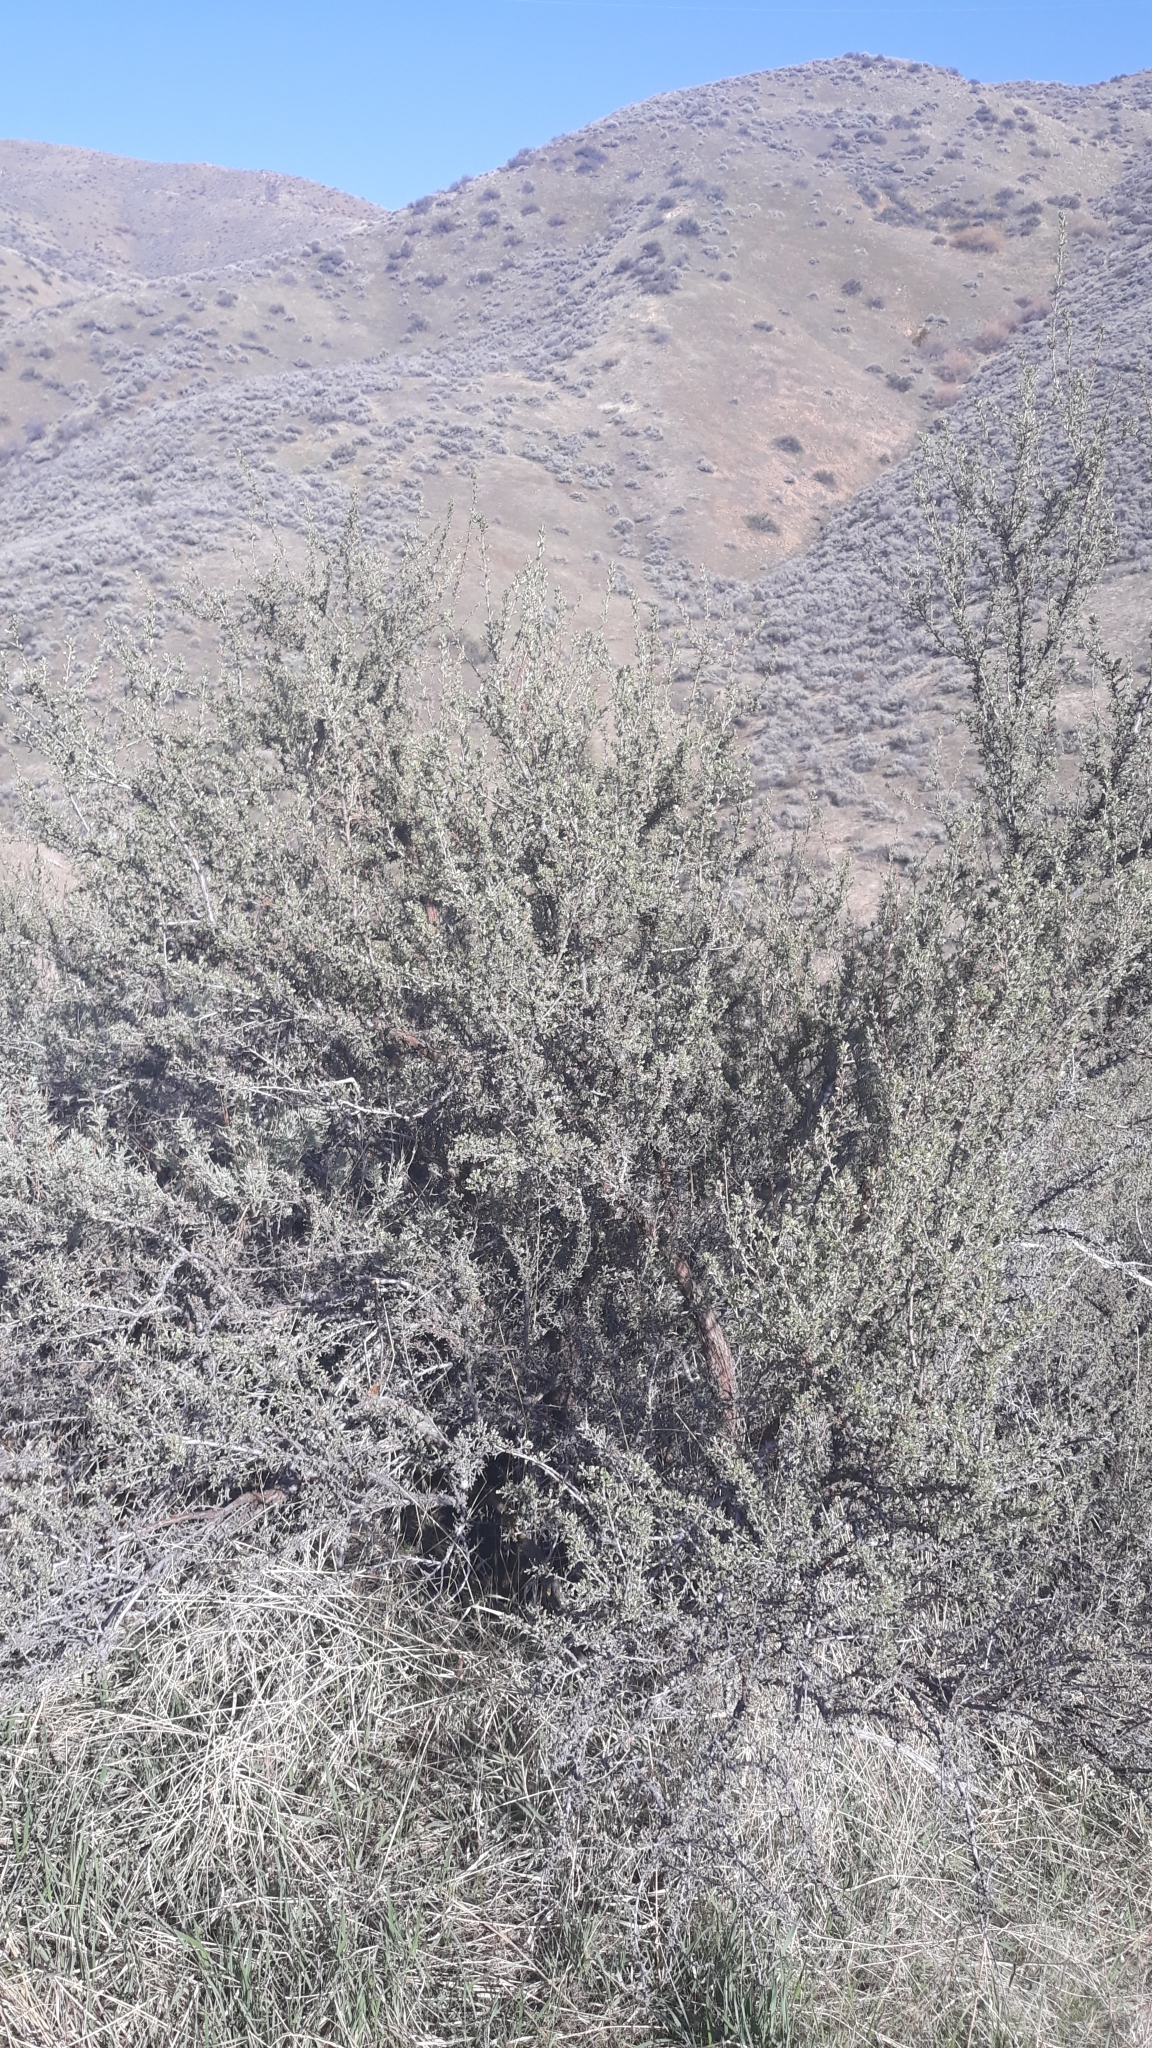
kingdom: Plantae
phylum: Tracheophyta
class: Magnoliopsida
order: Rosales
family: Rosaceae
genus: Purshia
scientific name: Purshia tridentata
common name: Antelope bitterbrush
